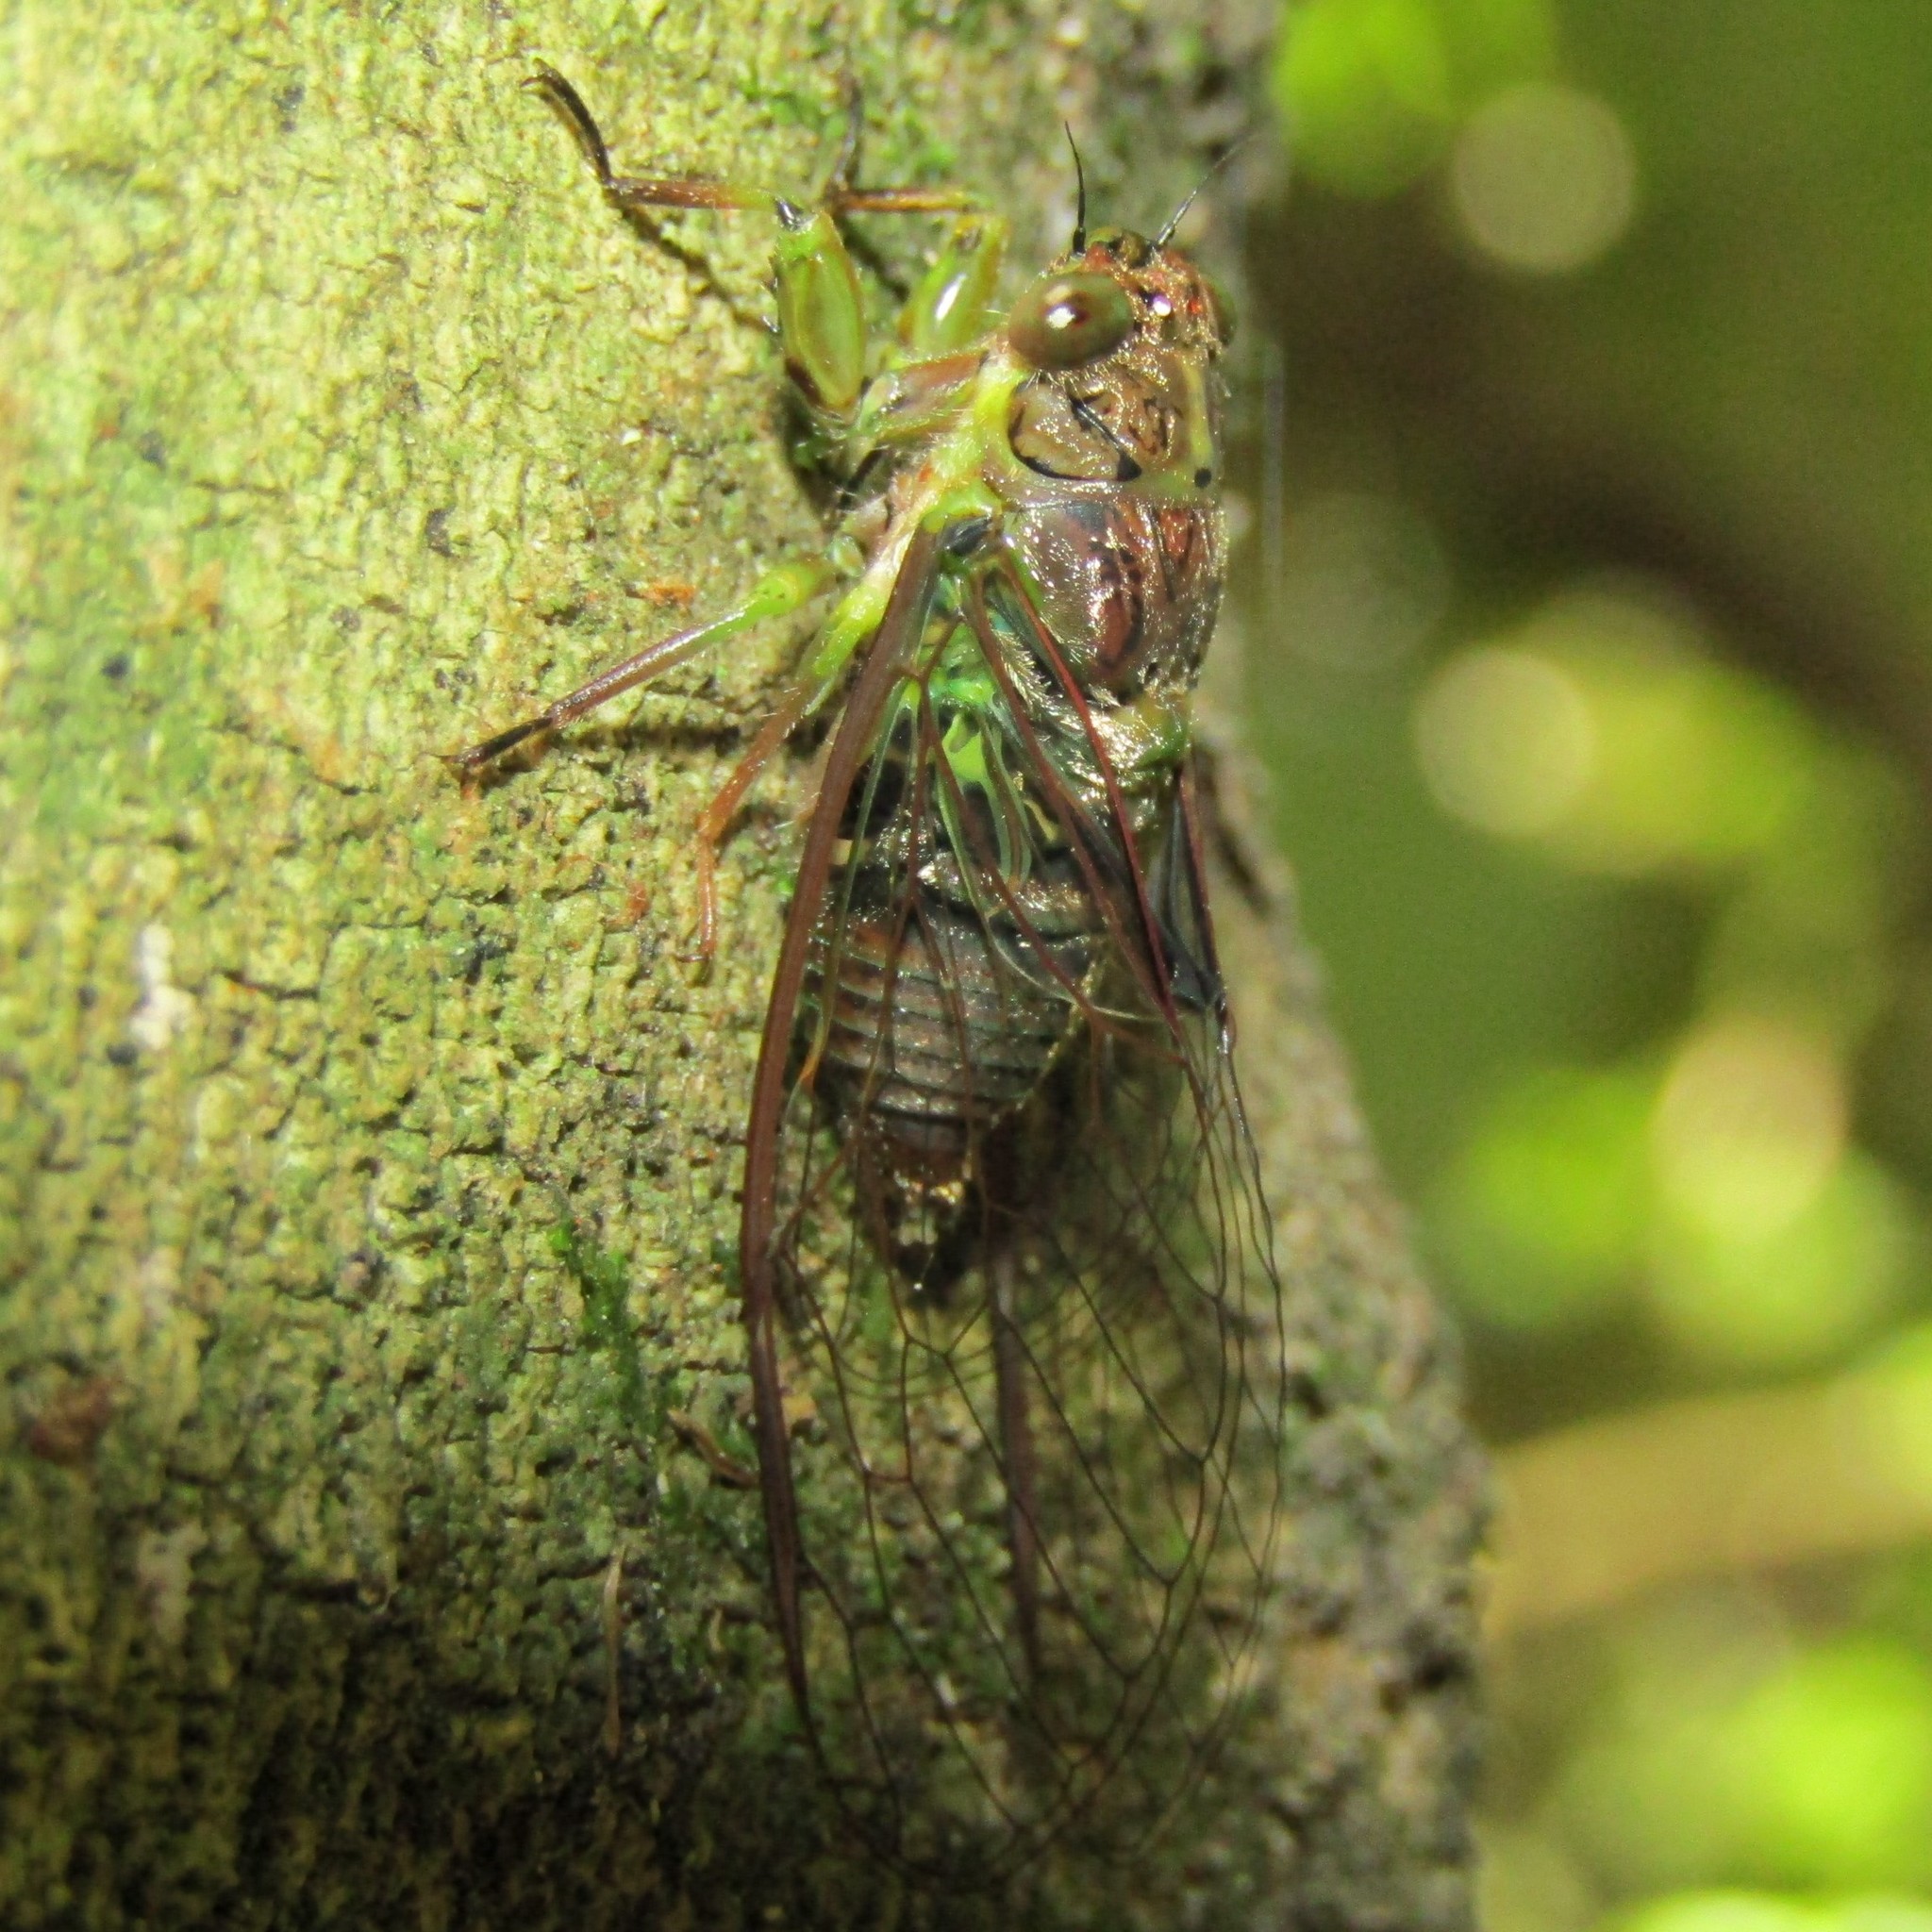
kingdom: Animalia
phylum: Arthropoda
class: Insecta
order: Hemiptera
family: Cicadidae
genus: Kikihia
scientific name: Kikihia scutellaris
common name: Lesser bronze cicada
